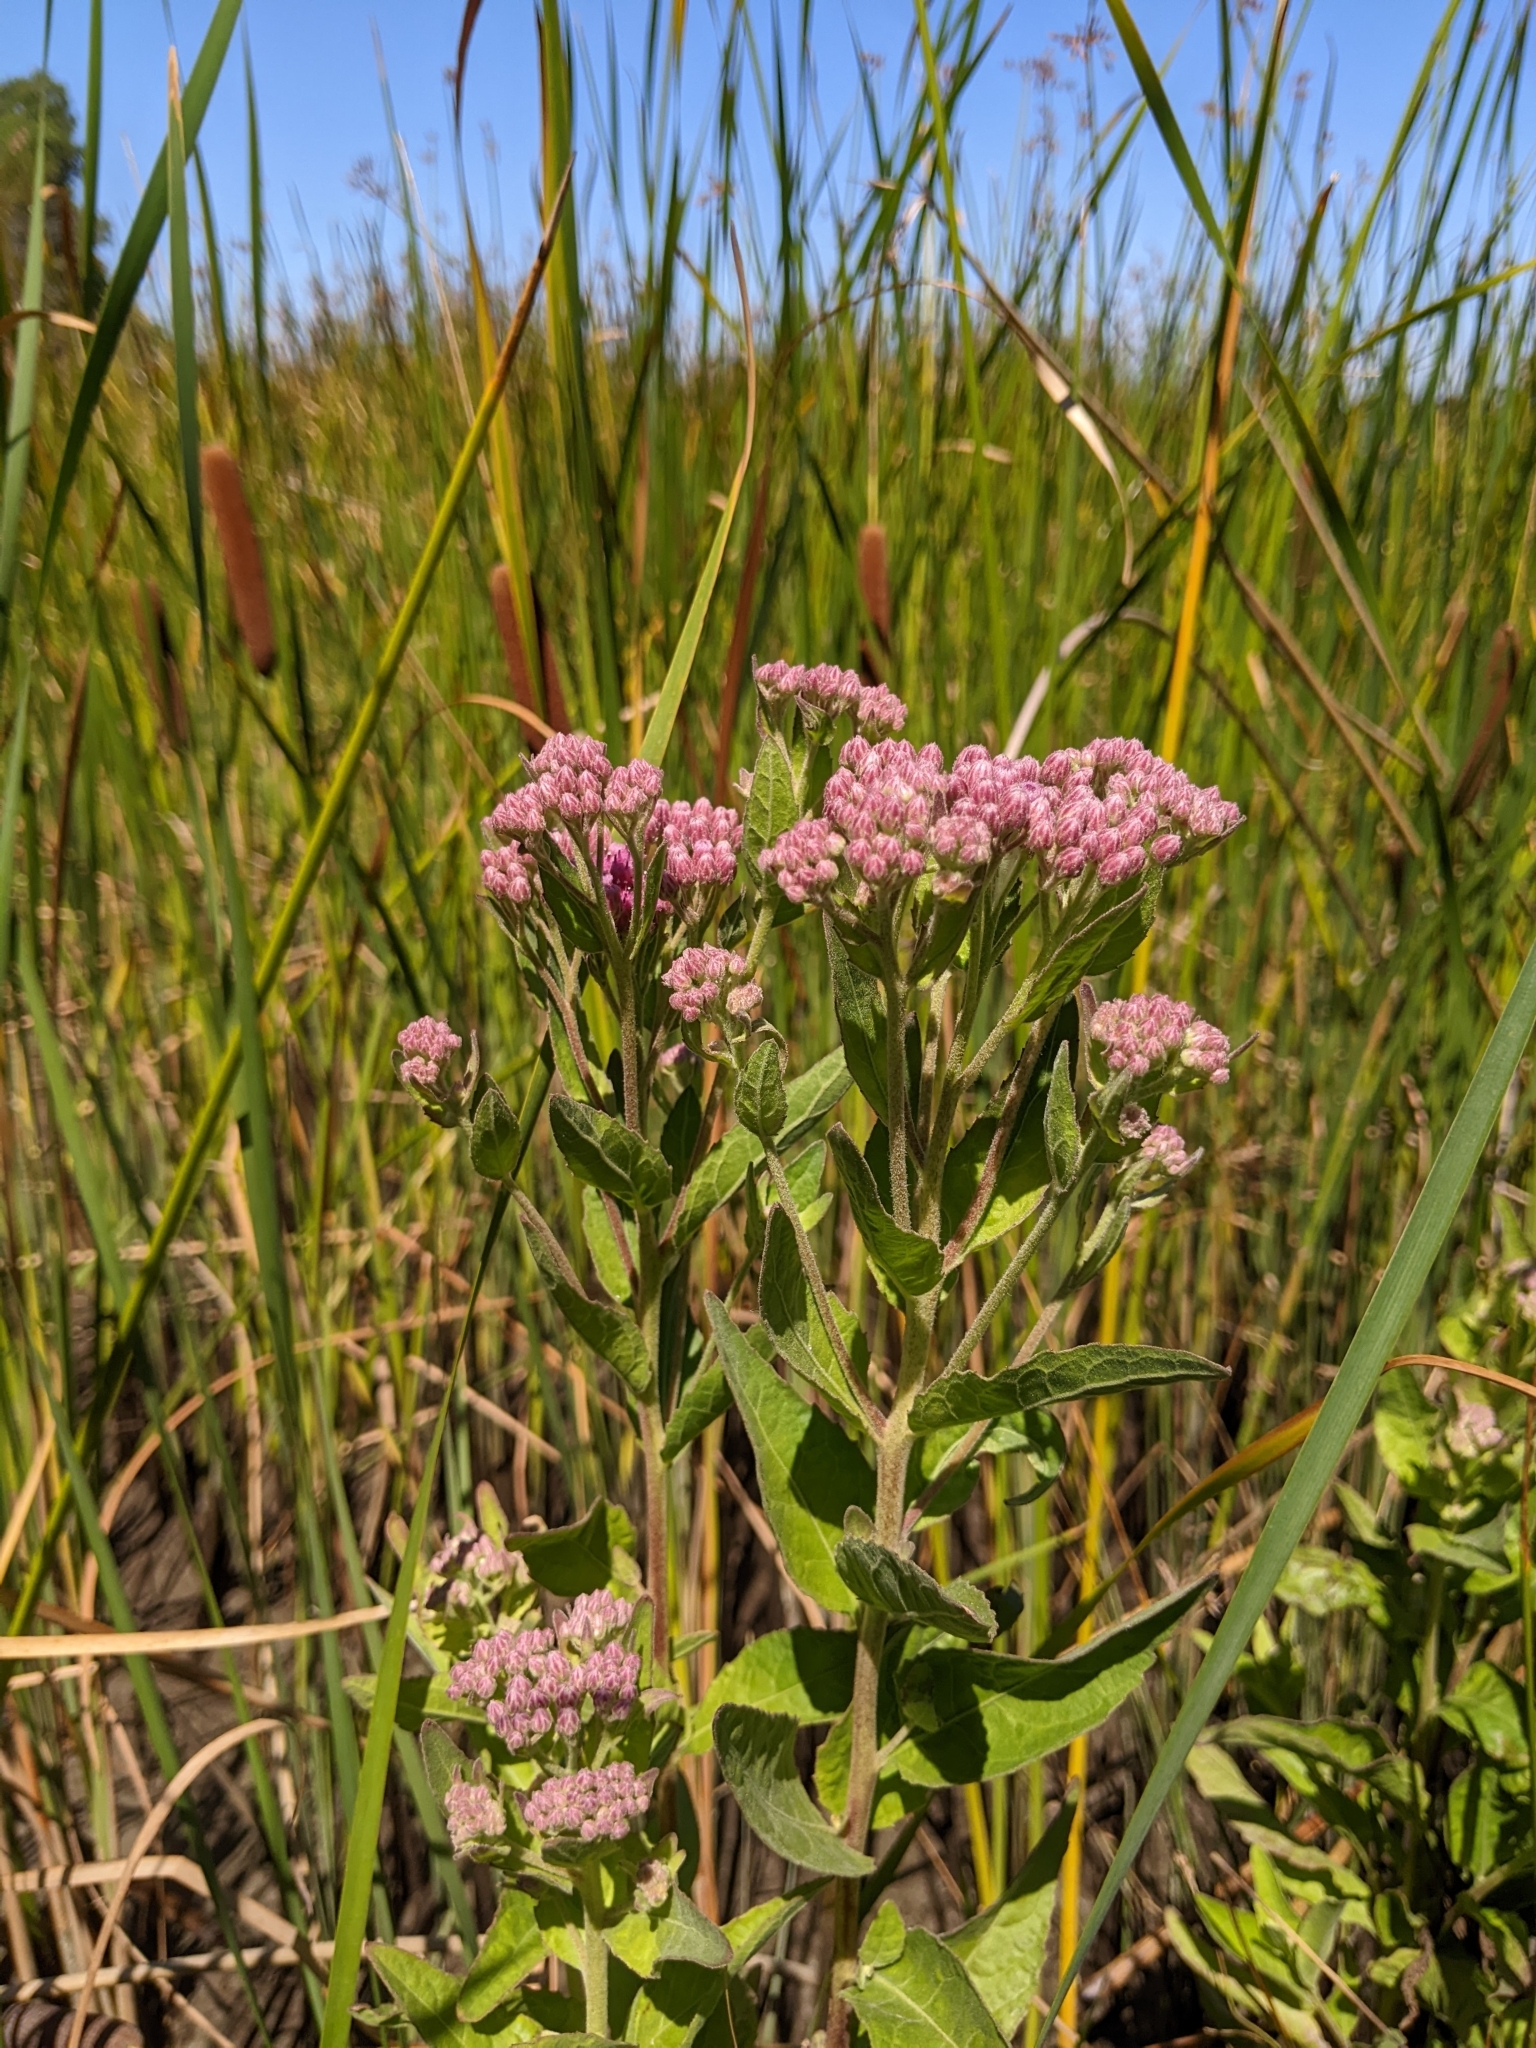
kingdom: Plantae
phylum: Tracheophyta
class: Magnoliopsida
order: Asterales
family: Asteraceae
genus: Pluchea
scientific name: Pluchea odorata
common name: Saltmarsh fleabane
